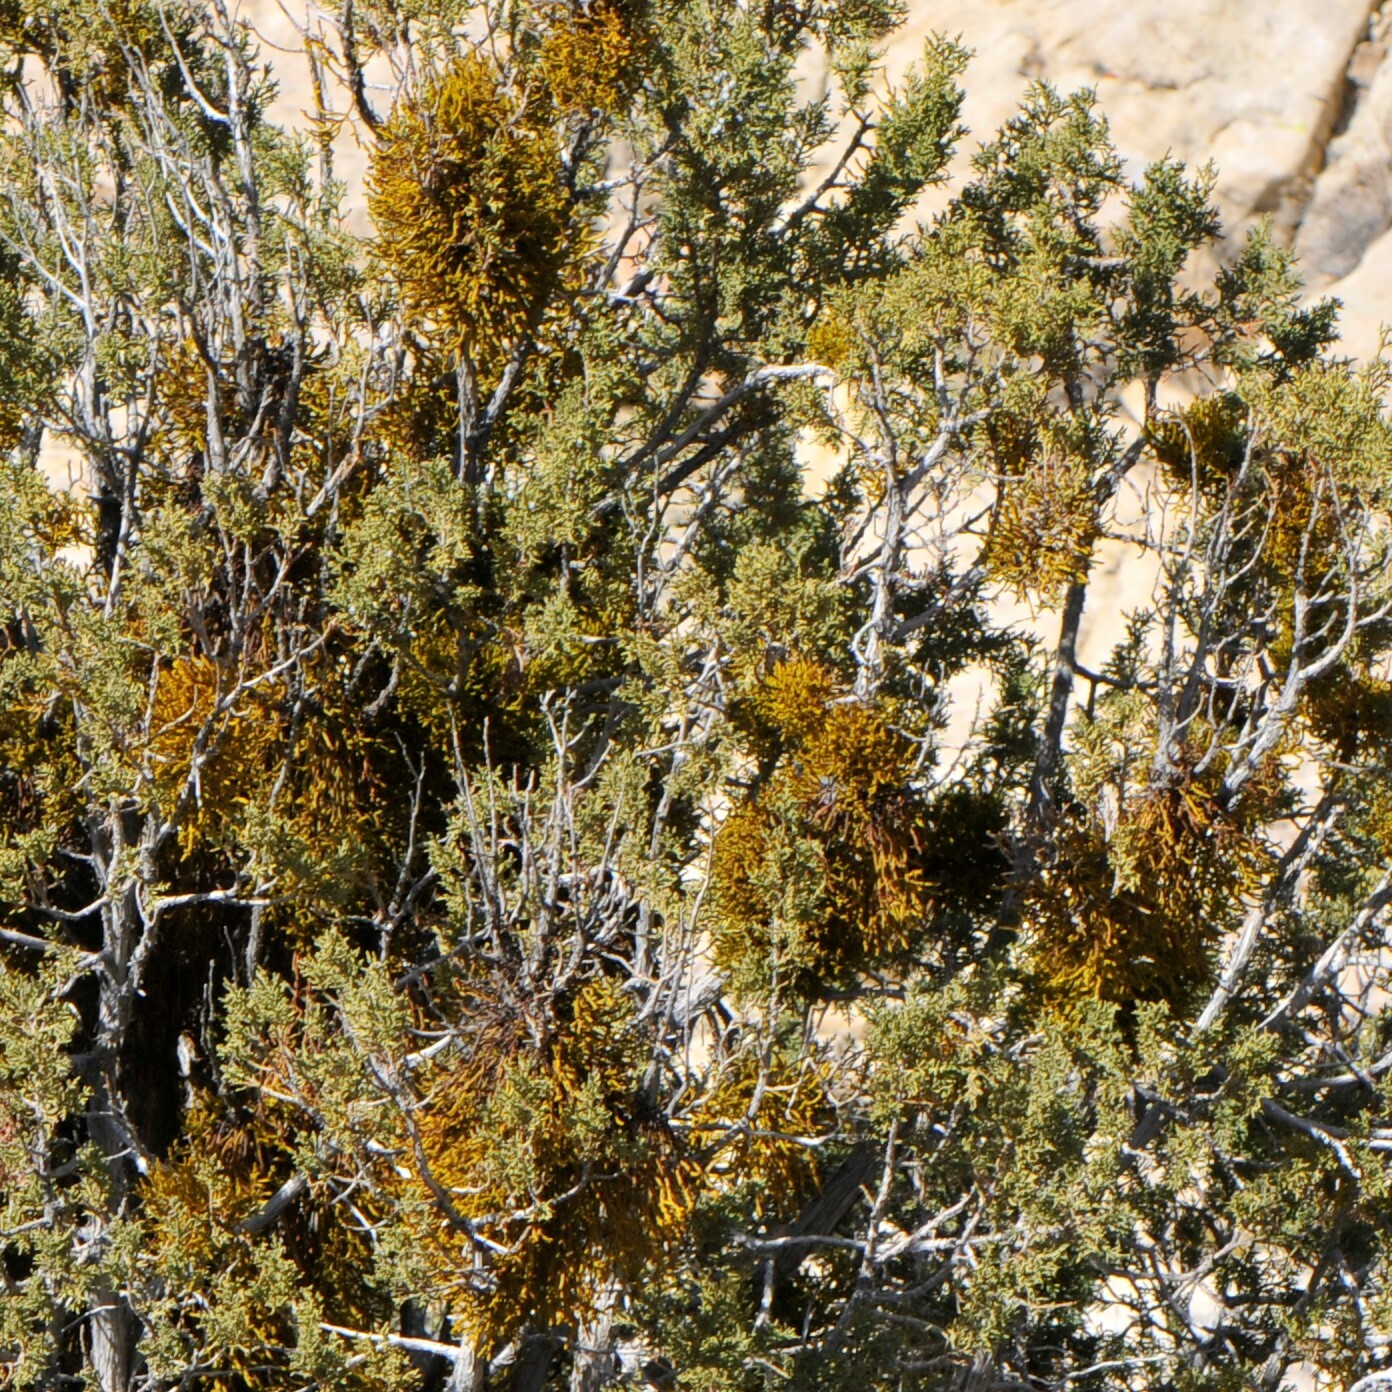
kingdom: Plantae
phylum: Tracheophyta
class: Magnoliopsida
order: Santalales
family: Viscaceae
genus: Phoradendron
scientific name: Phoradendron juniperinum
